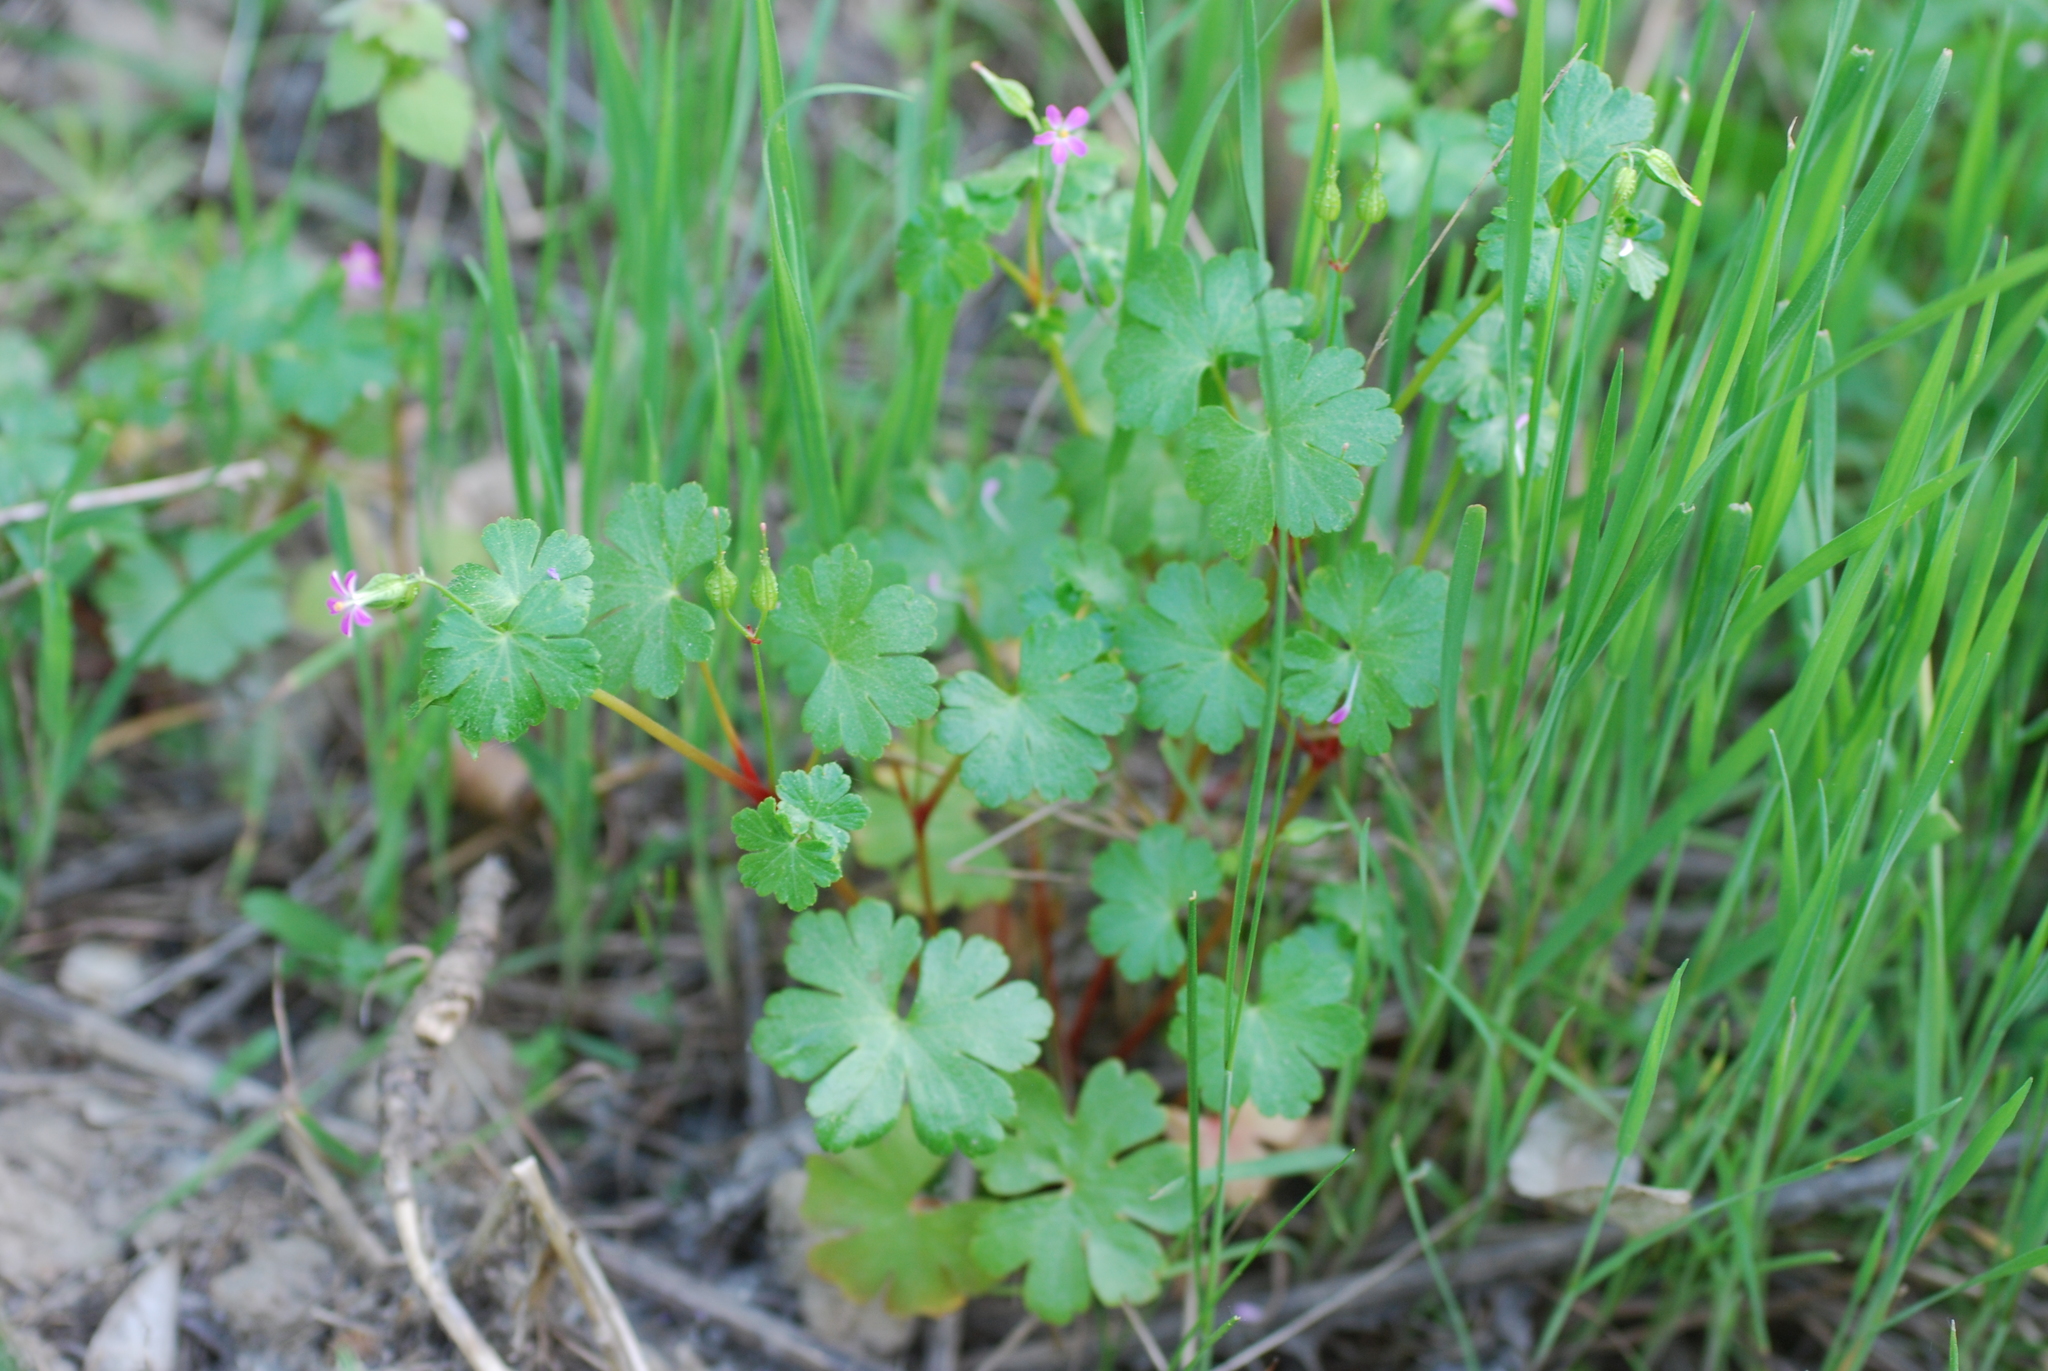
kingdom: Plantae
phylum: Tracheophyta
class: Magnoliopsida
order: Geraniales
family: Geraniaceae
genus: Geranium
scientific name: Geranium lucidum
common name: Shining crane's-bill
